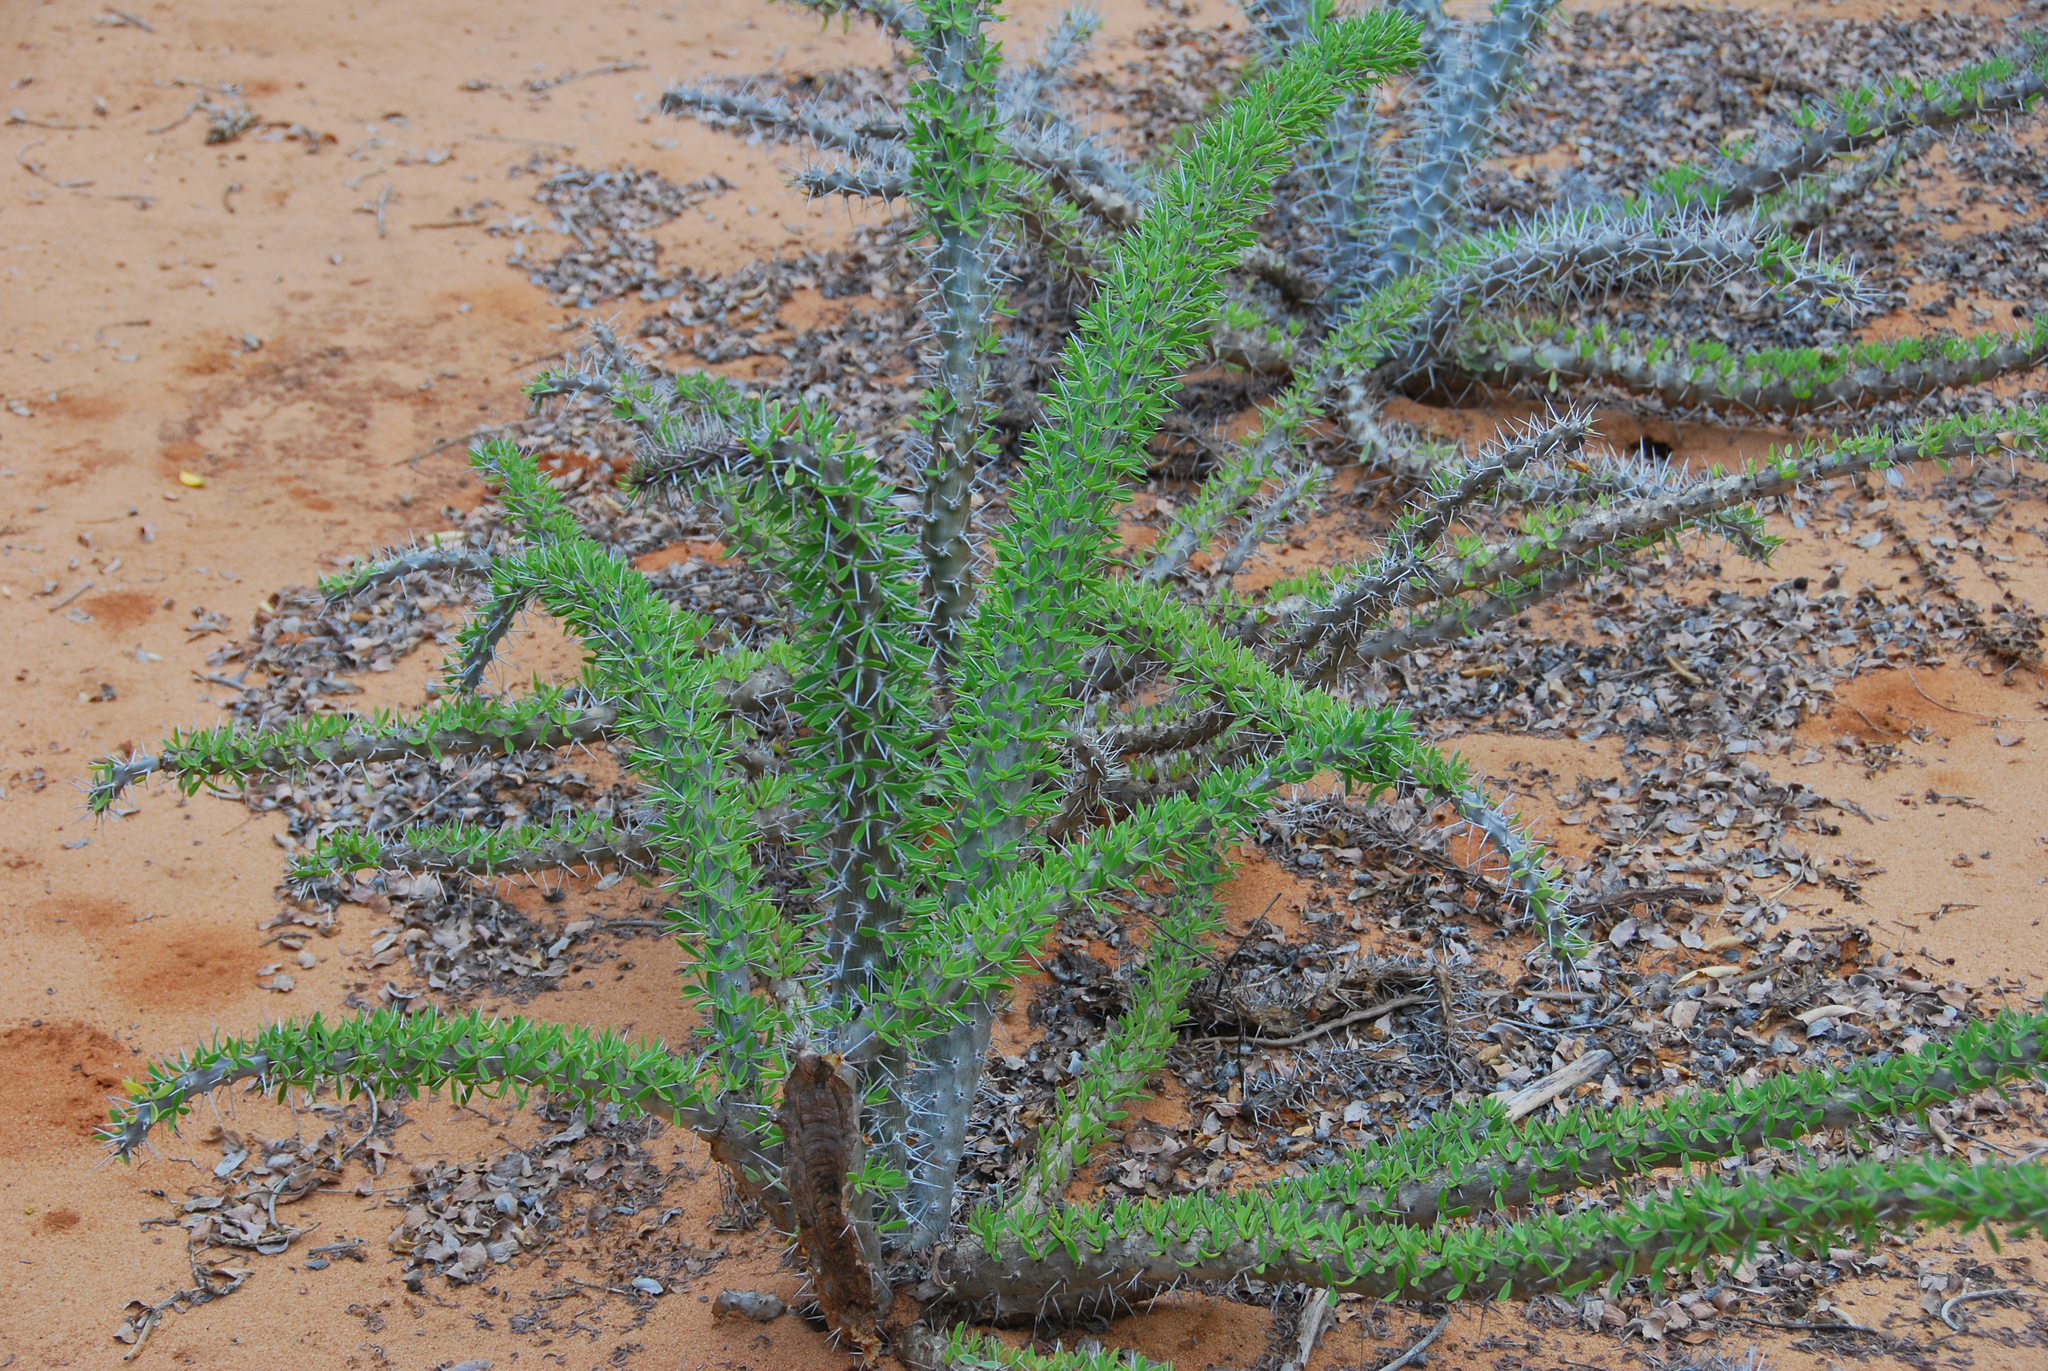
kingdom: Plantae
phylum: Tracheophyta
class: Magnoliopsida
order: Caryophyllales
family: Didiereaceae
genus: Didierea
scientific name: Didierea trollii
